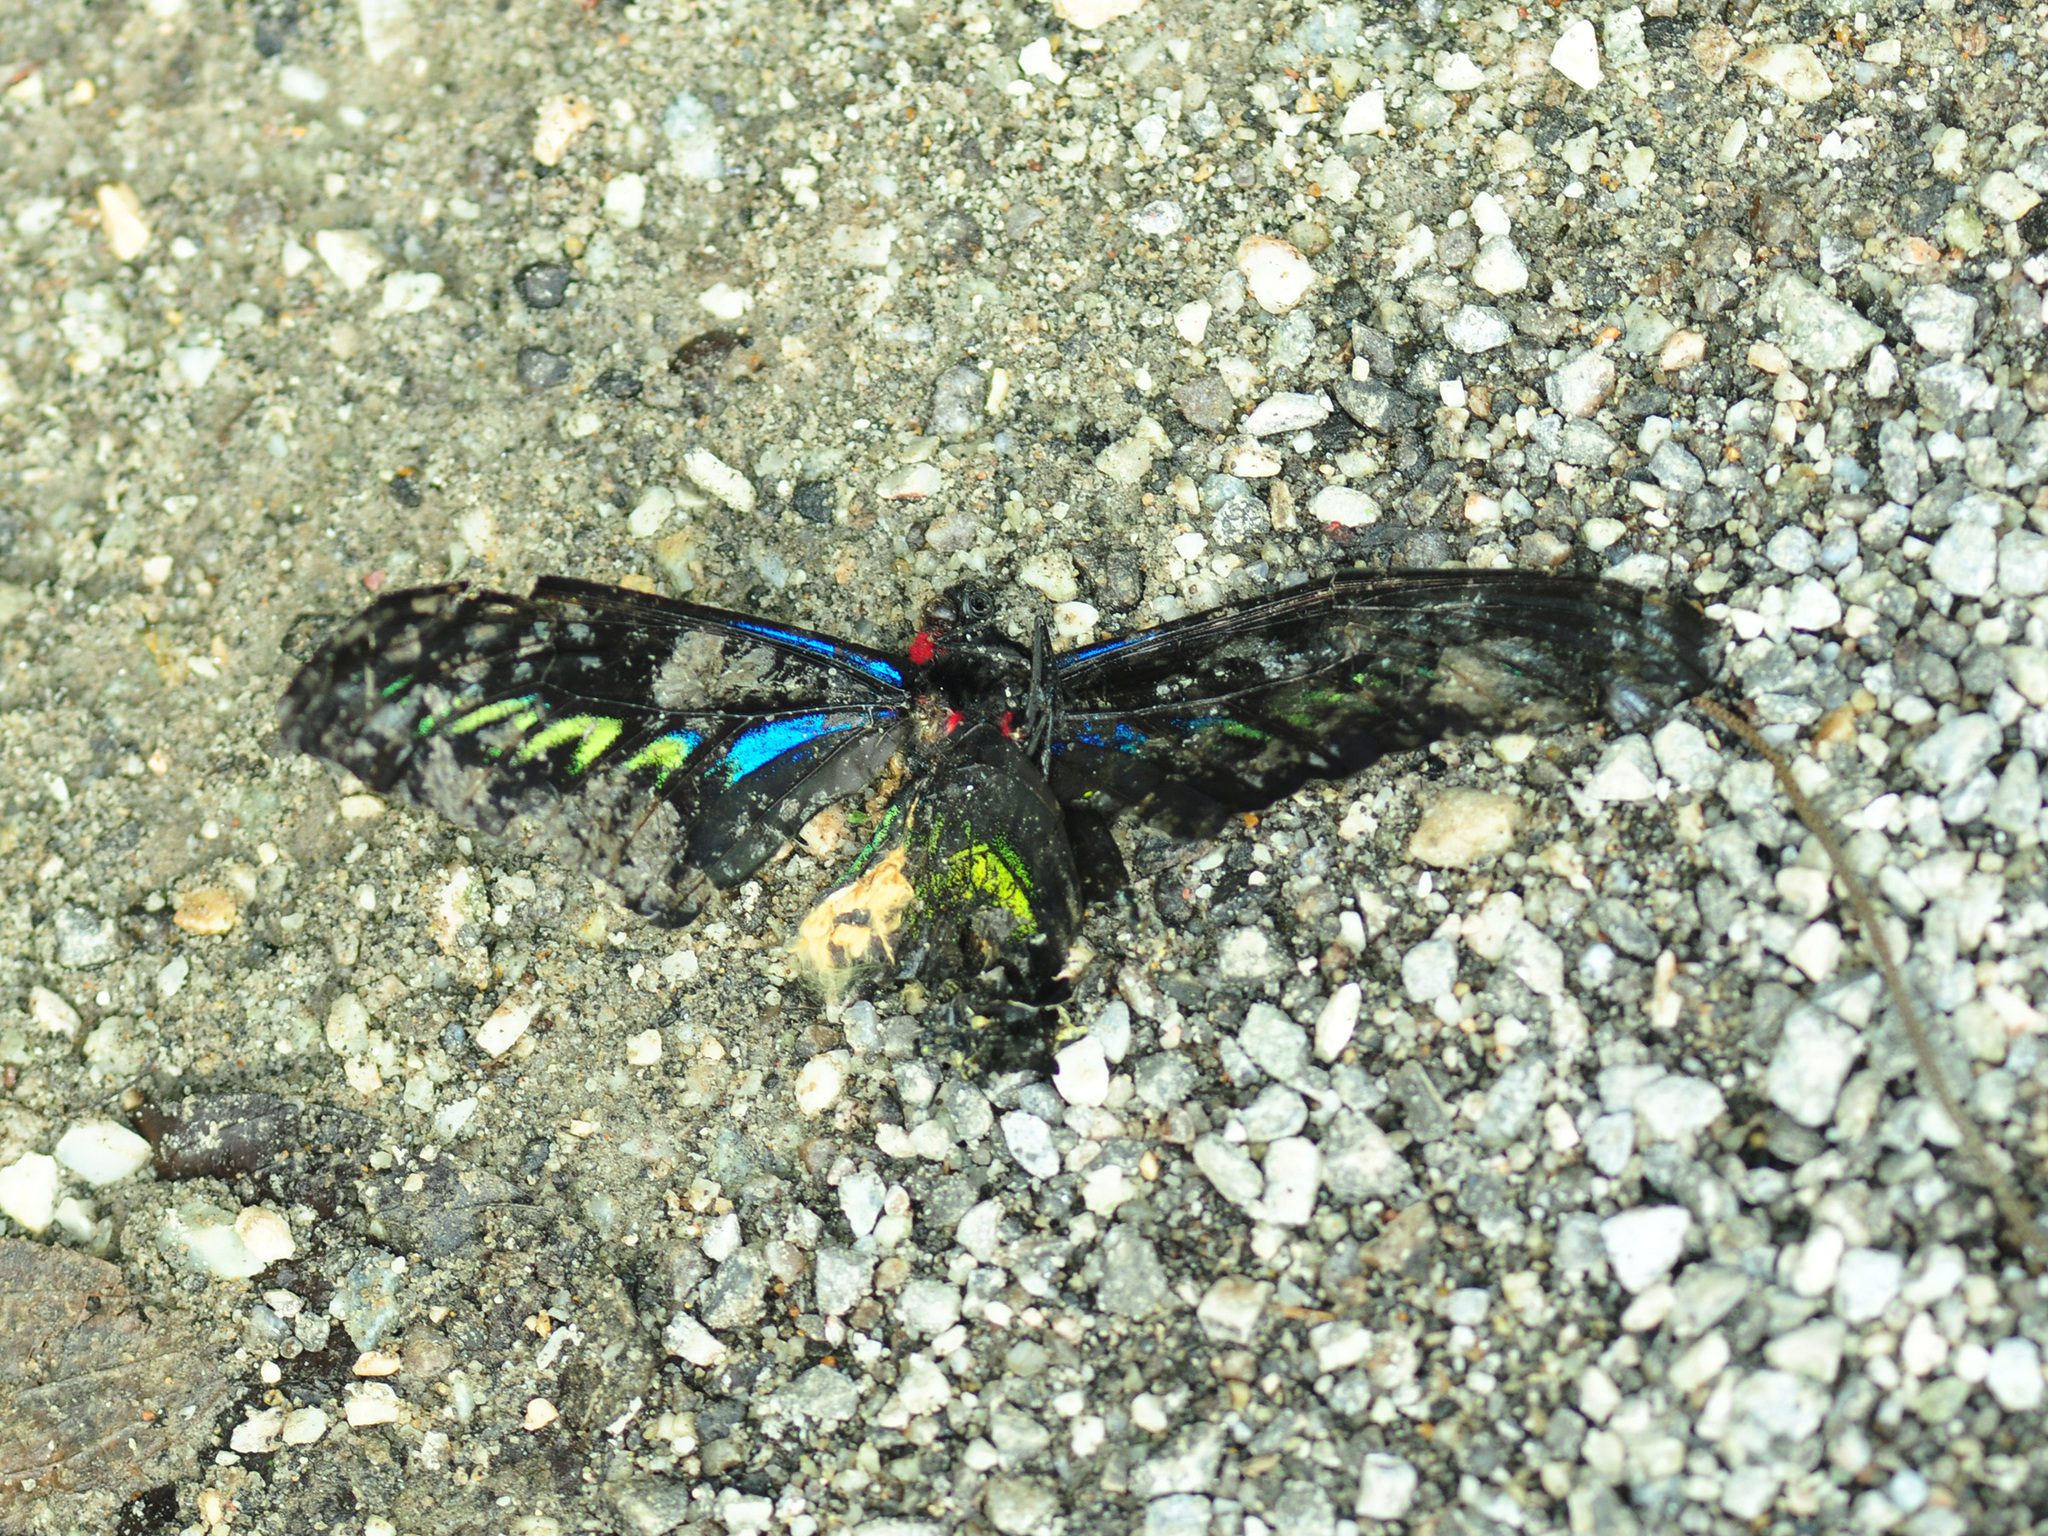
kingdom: Animalia
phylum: Arthropoda
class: Insecta
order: Lepidoptera
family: Papilionidae
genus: Trogonoptera
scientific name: Trogonoptera brookiana
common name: Raja brooke's birdwing
